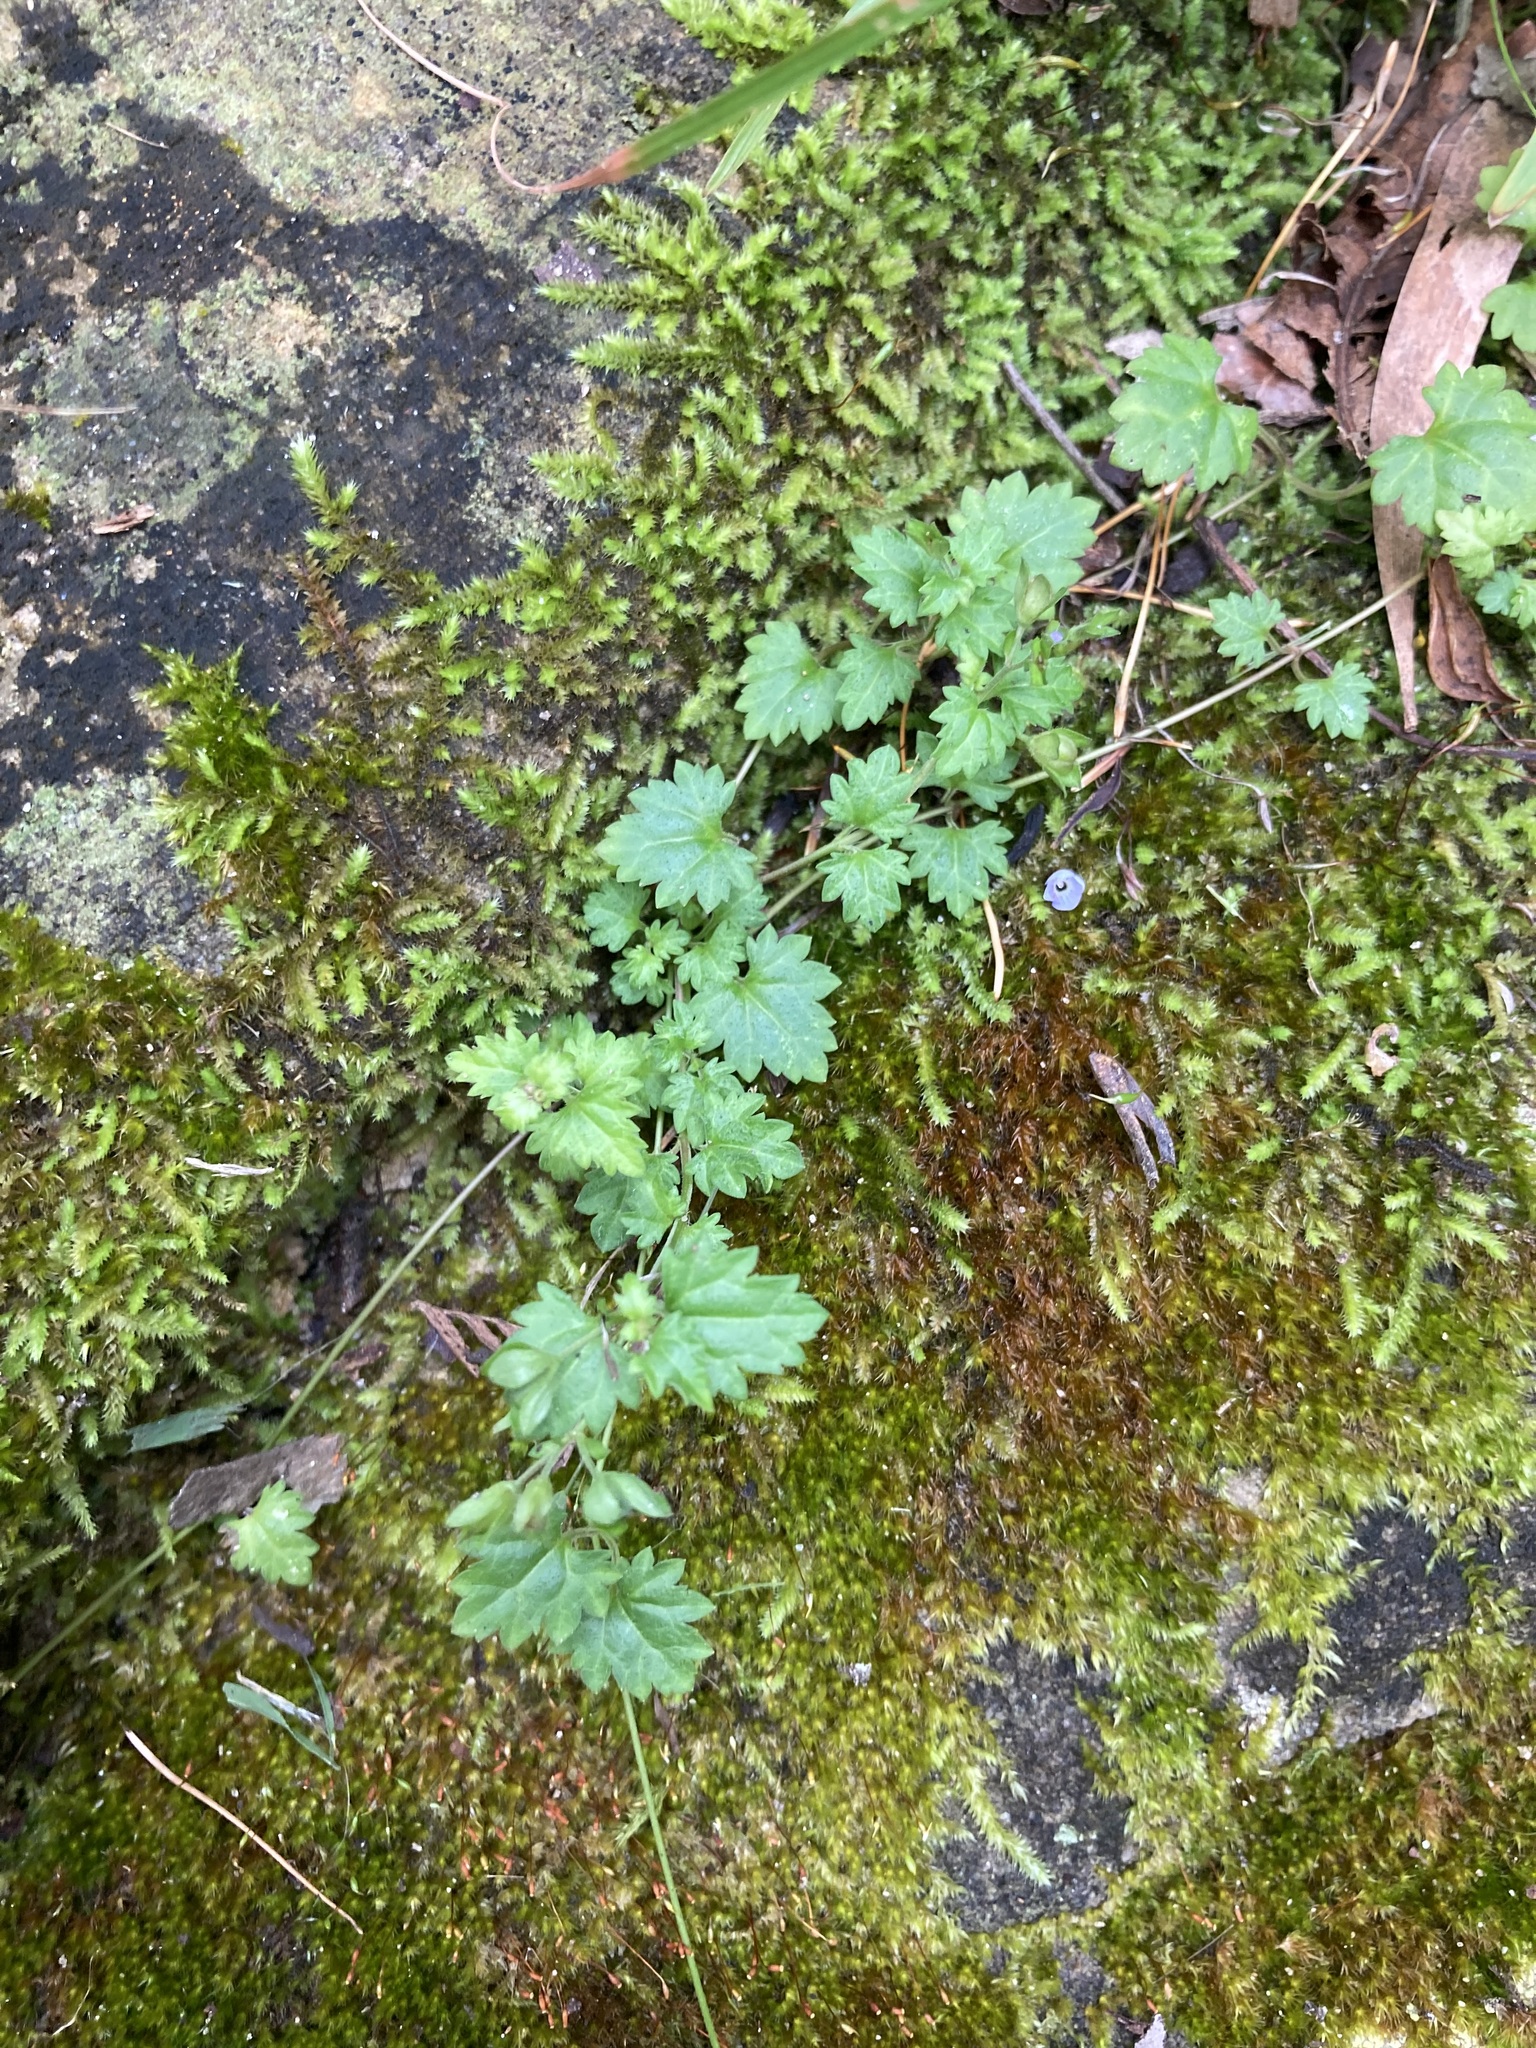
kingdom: Plantae
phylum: Tracheophyta
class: Magnoliopsida
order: Lamiales
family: Plantaginaceae
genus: Veronica
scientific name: Veronica plebeia
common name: Speedwell
